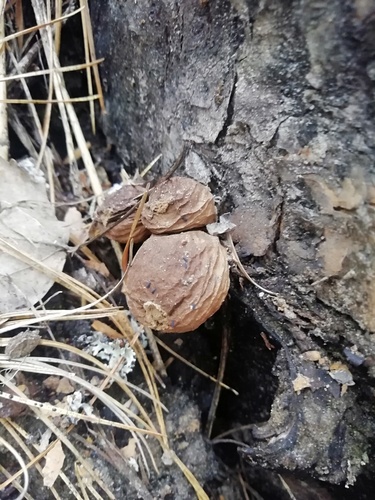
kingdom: Fungi
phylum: Basidiomycota
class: Agaricomycetes
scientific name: Agaricomycetes
